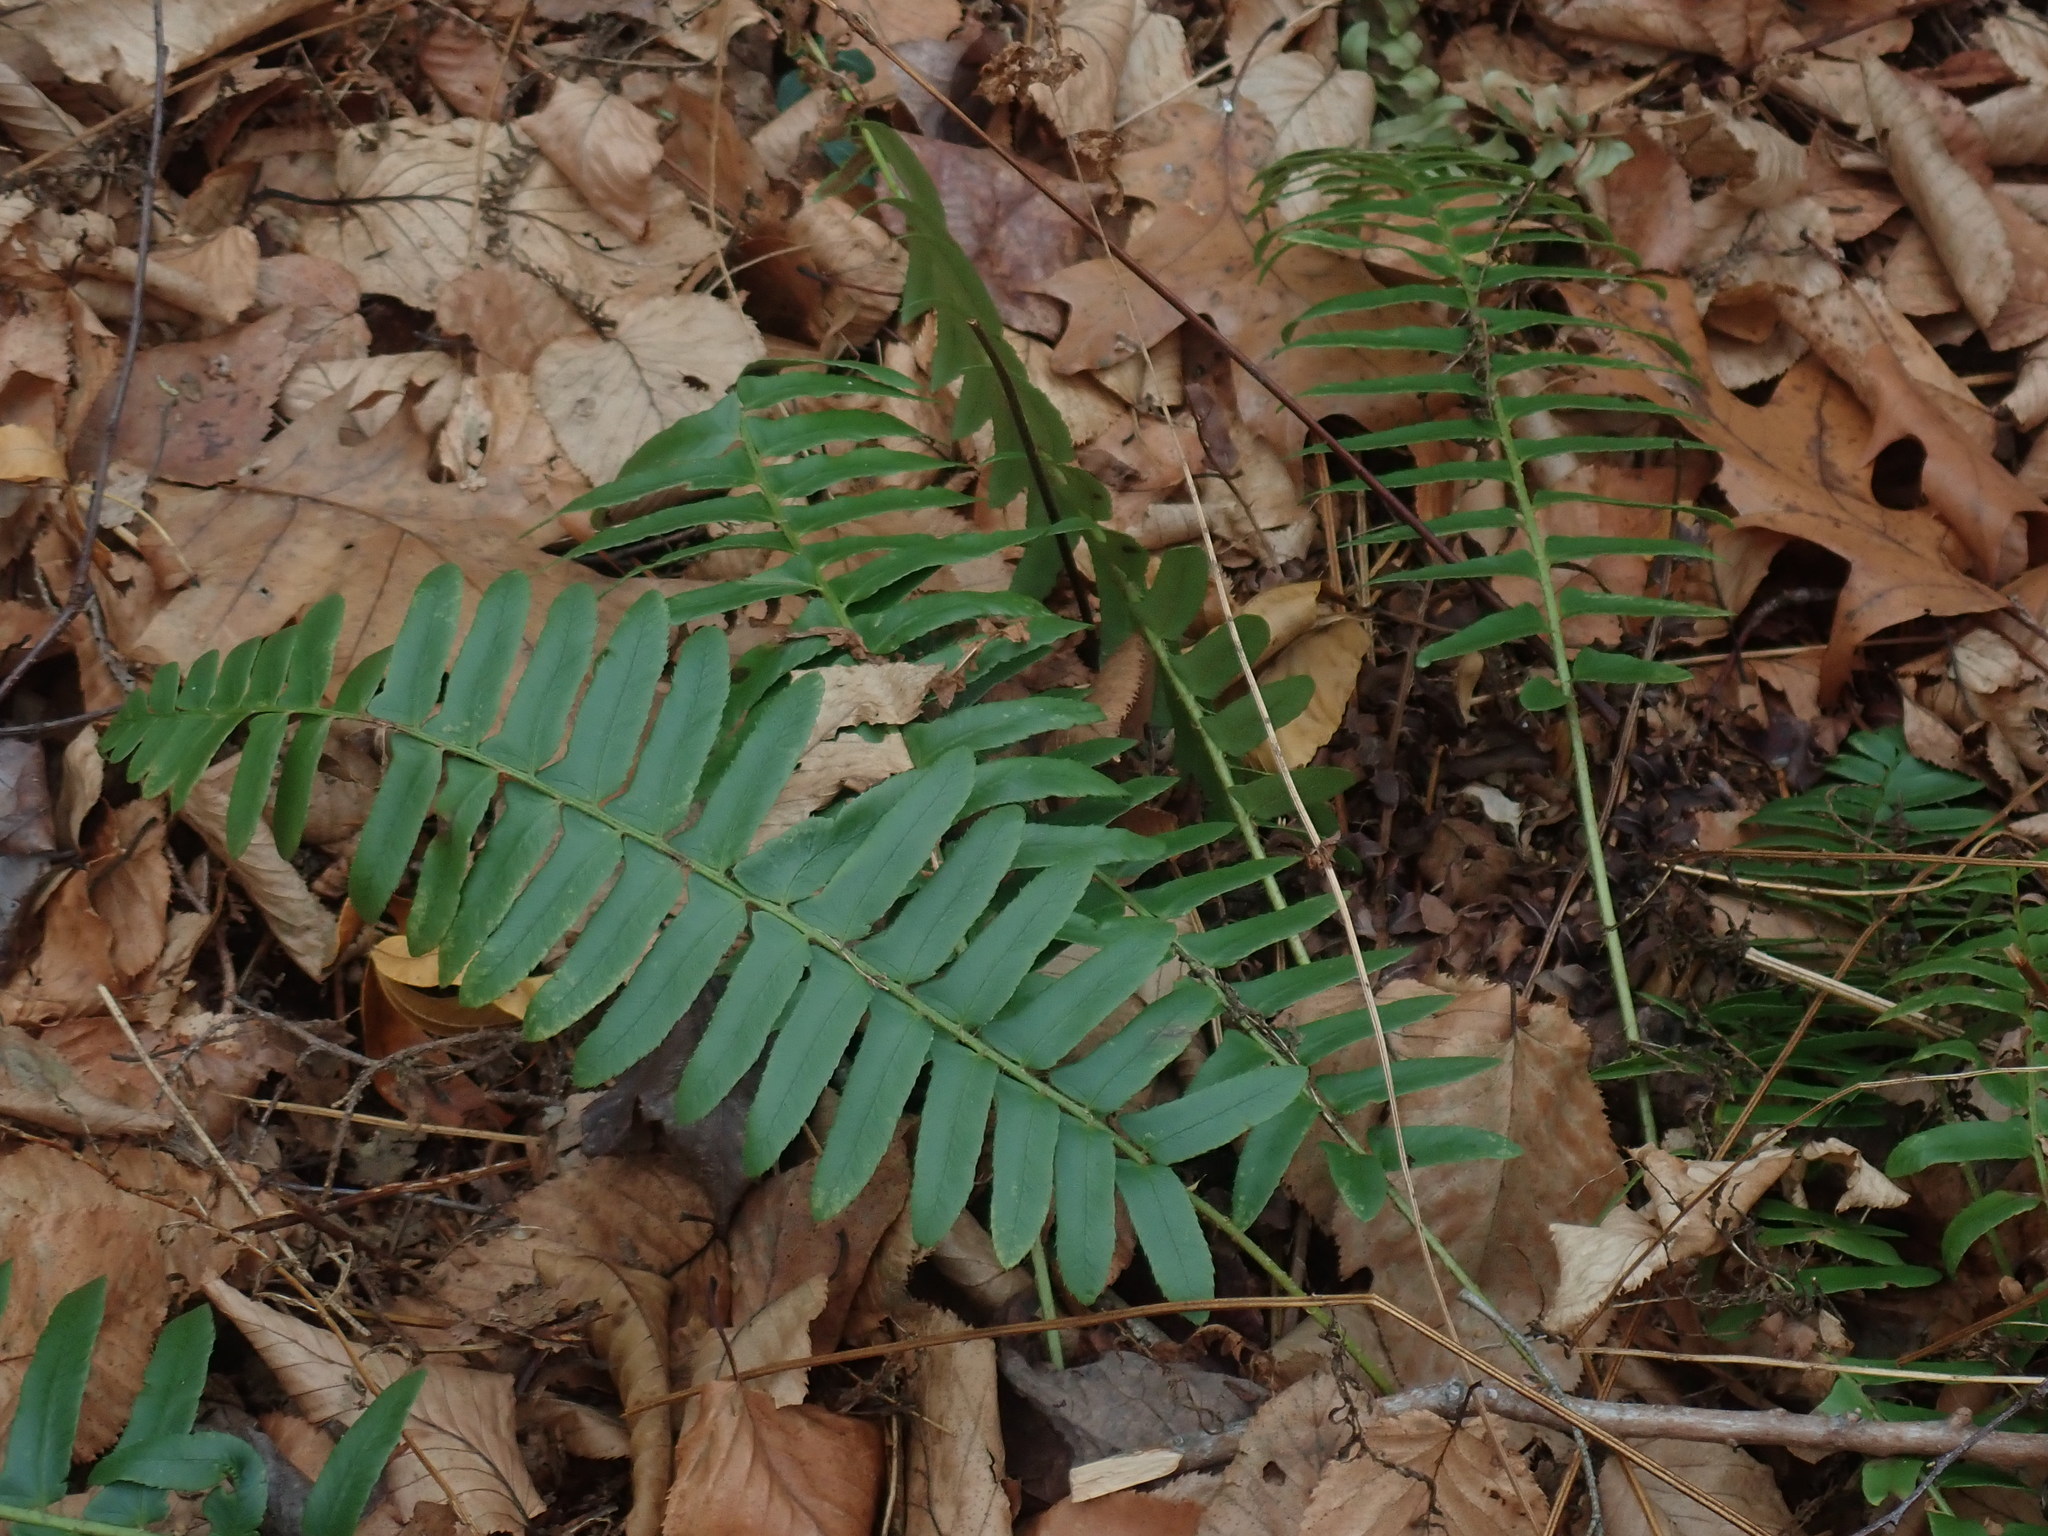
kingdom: Plantae
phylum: Tracheophyta
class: Polypodiopsida
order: Polypodiales
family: Dryopteridaceae
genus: Polystichum
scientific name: Polystichum acrostichoides
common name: Christmas fern
